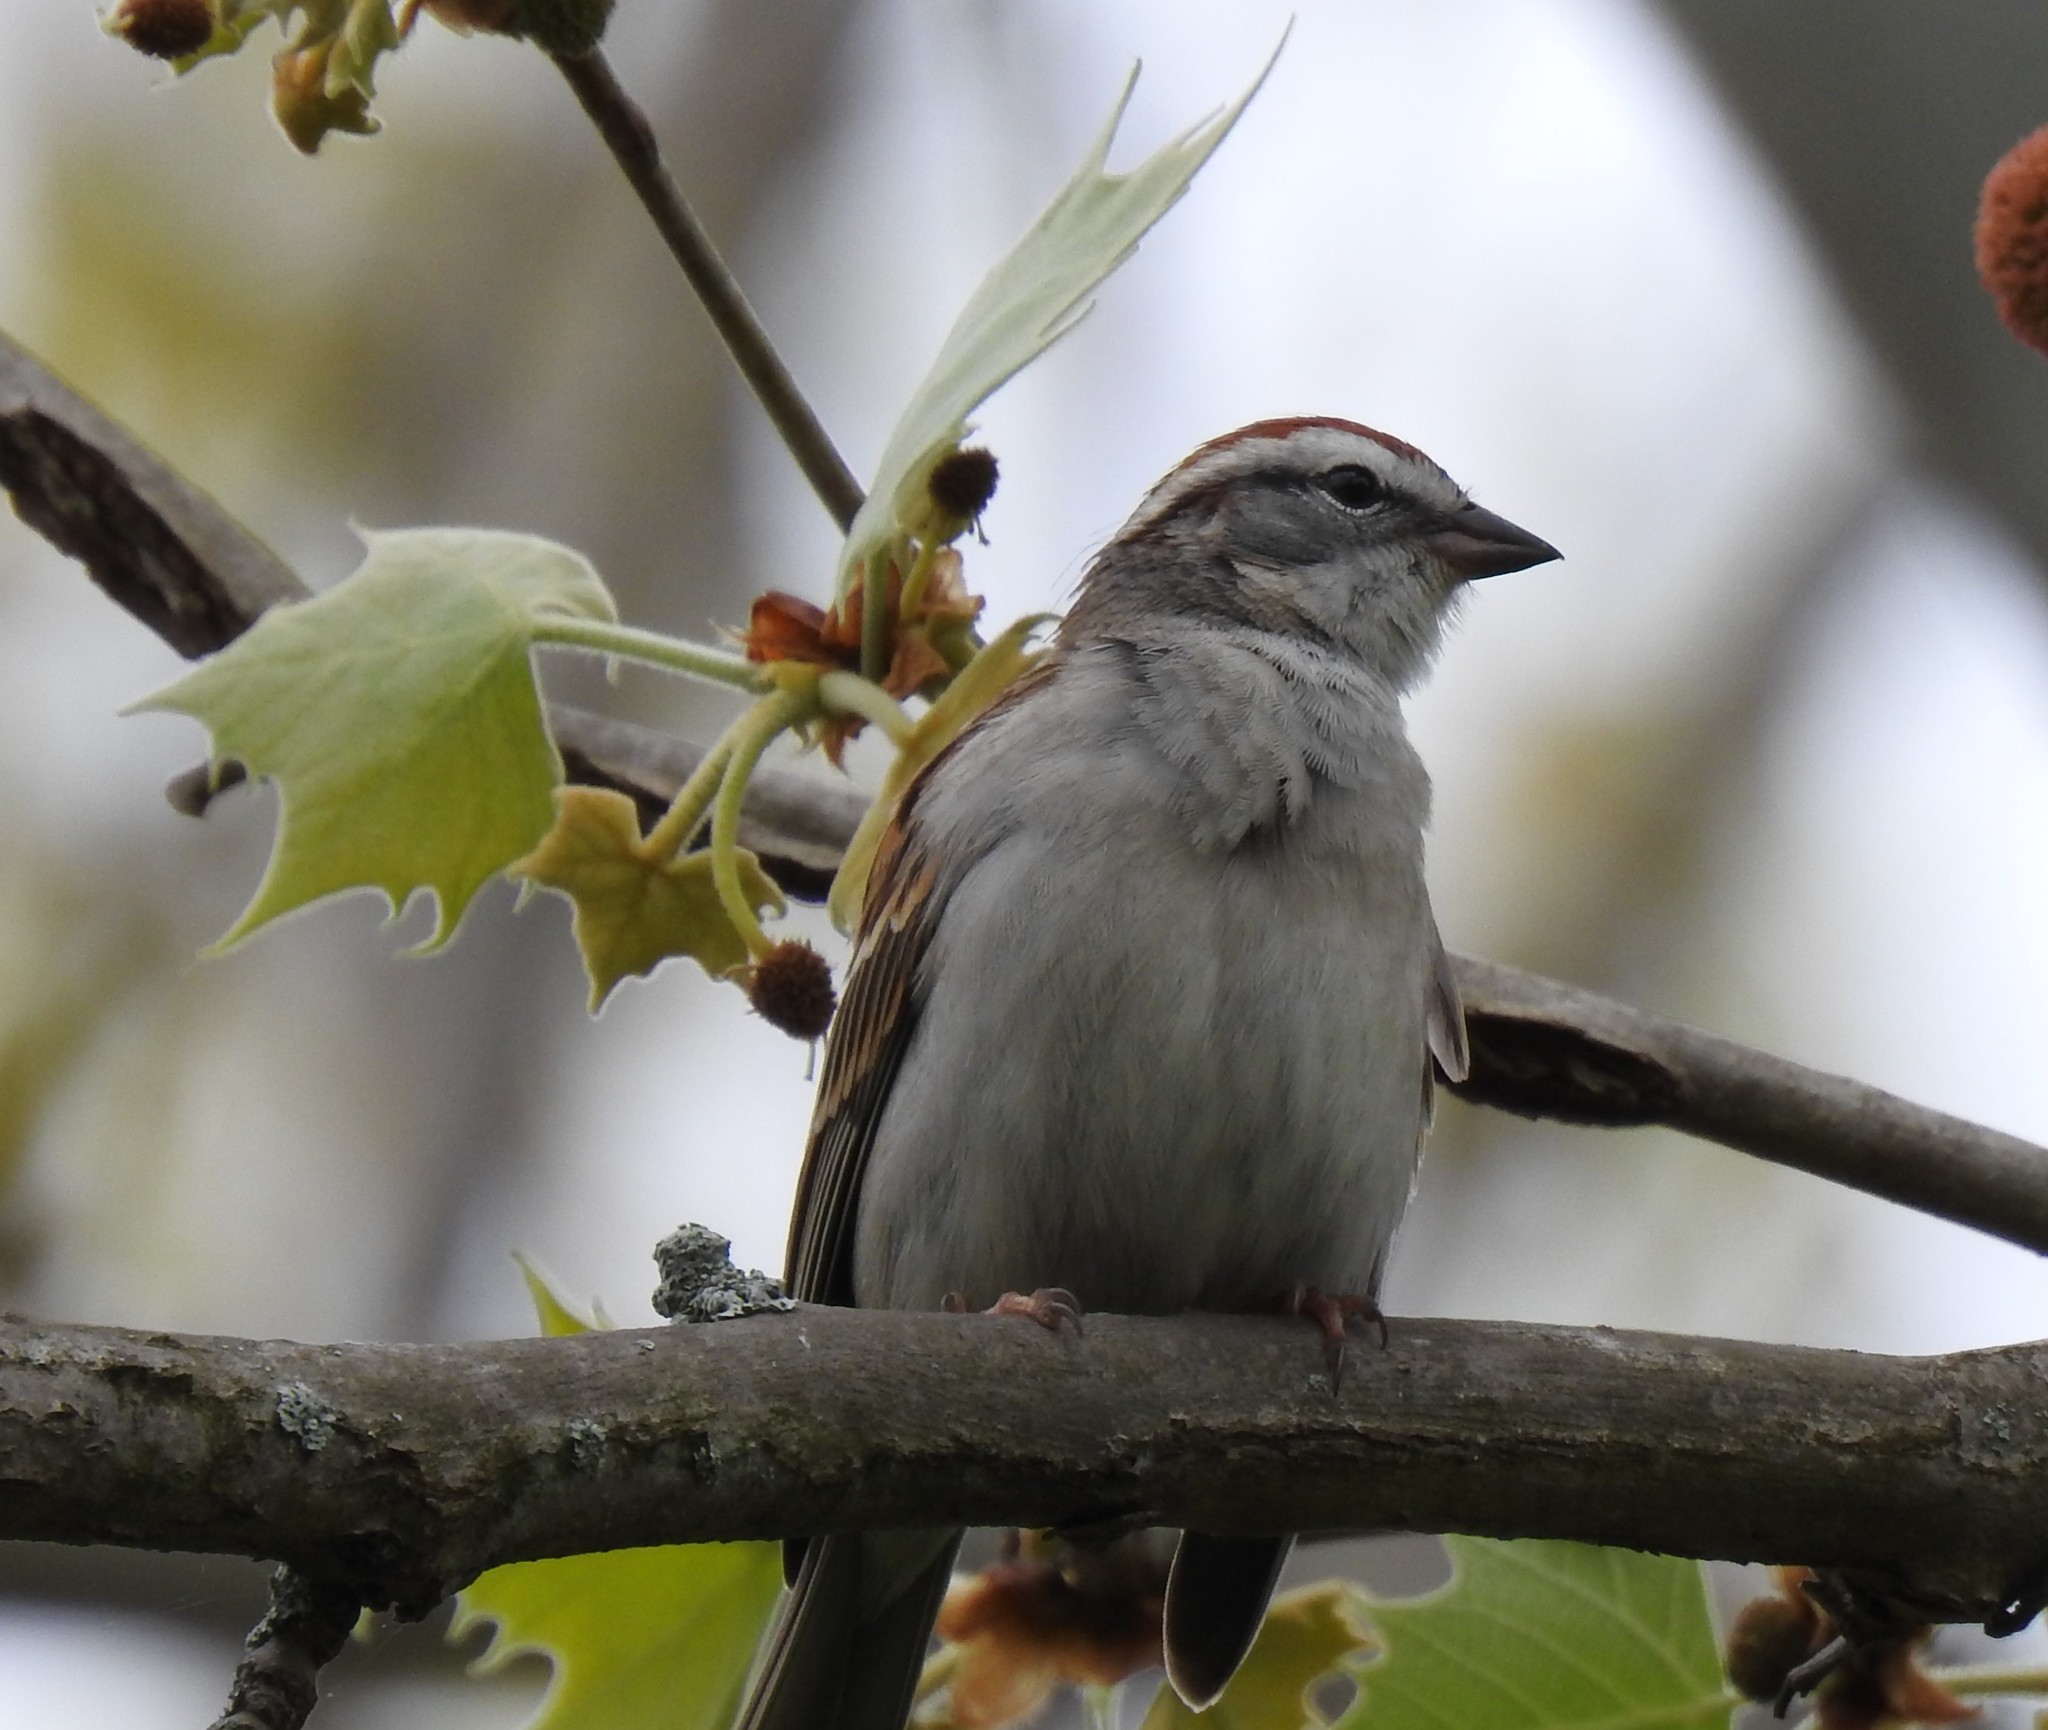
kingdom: Animalia
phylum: Chordata
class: Aves
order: Passeriformes
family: Passerellidae
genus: Spizella
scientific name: Spizella passerina
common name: Chipping sparrow
